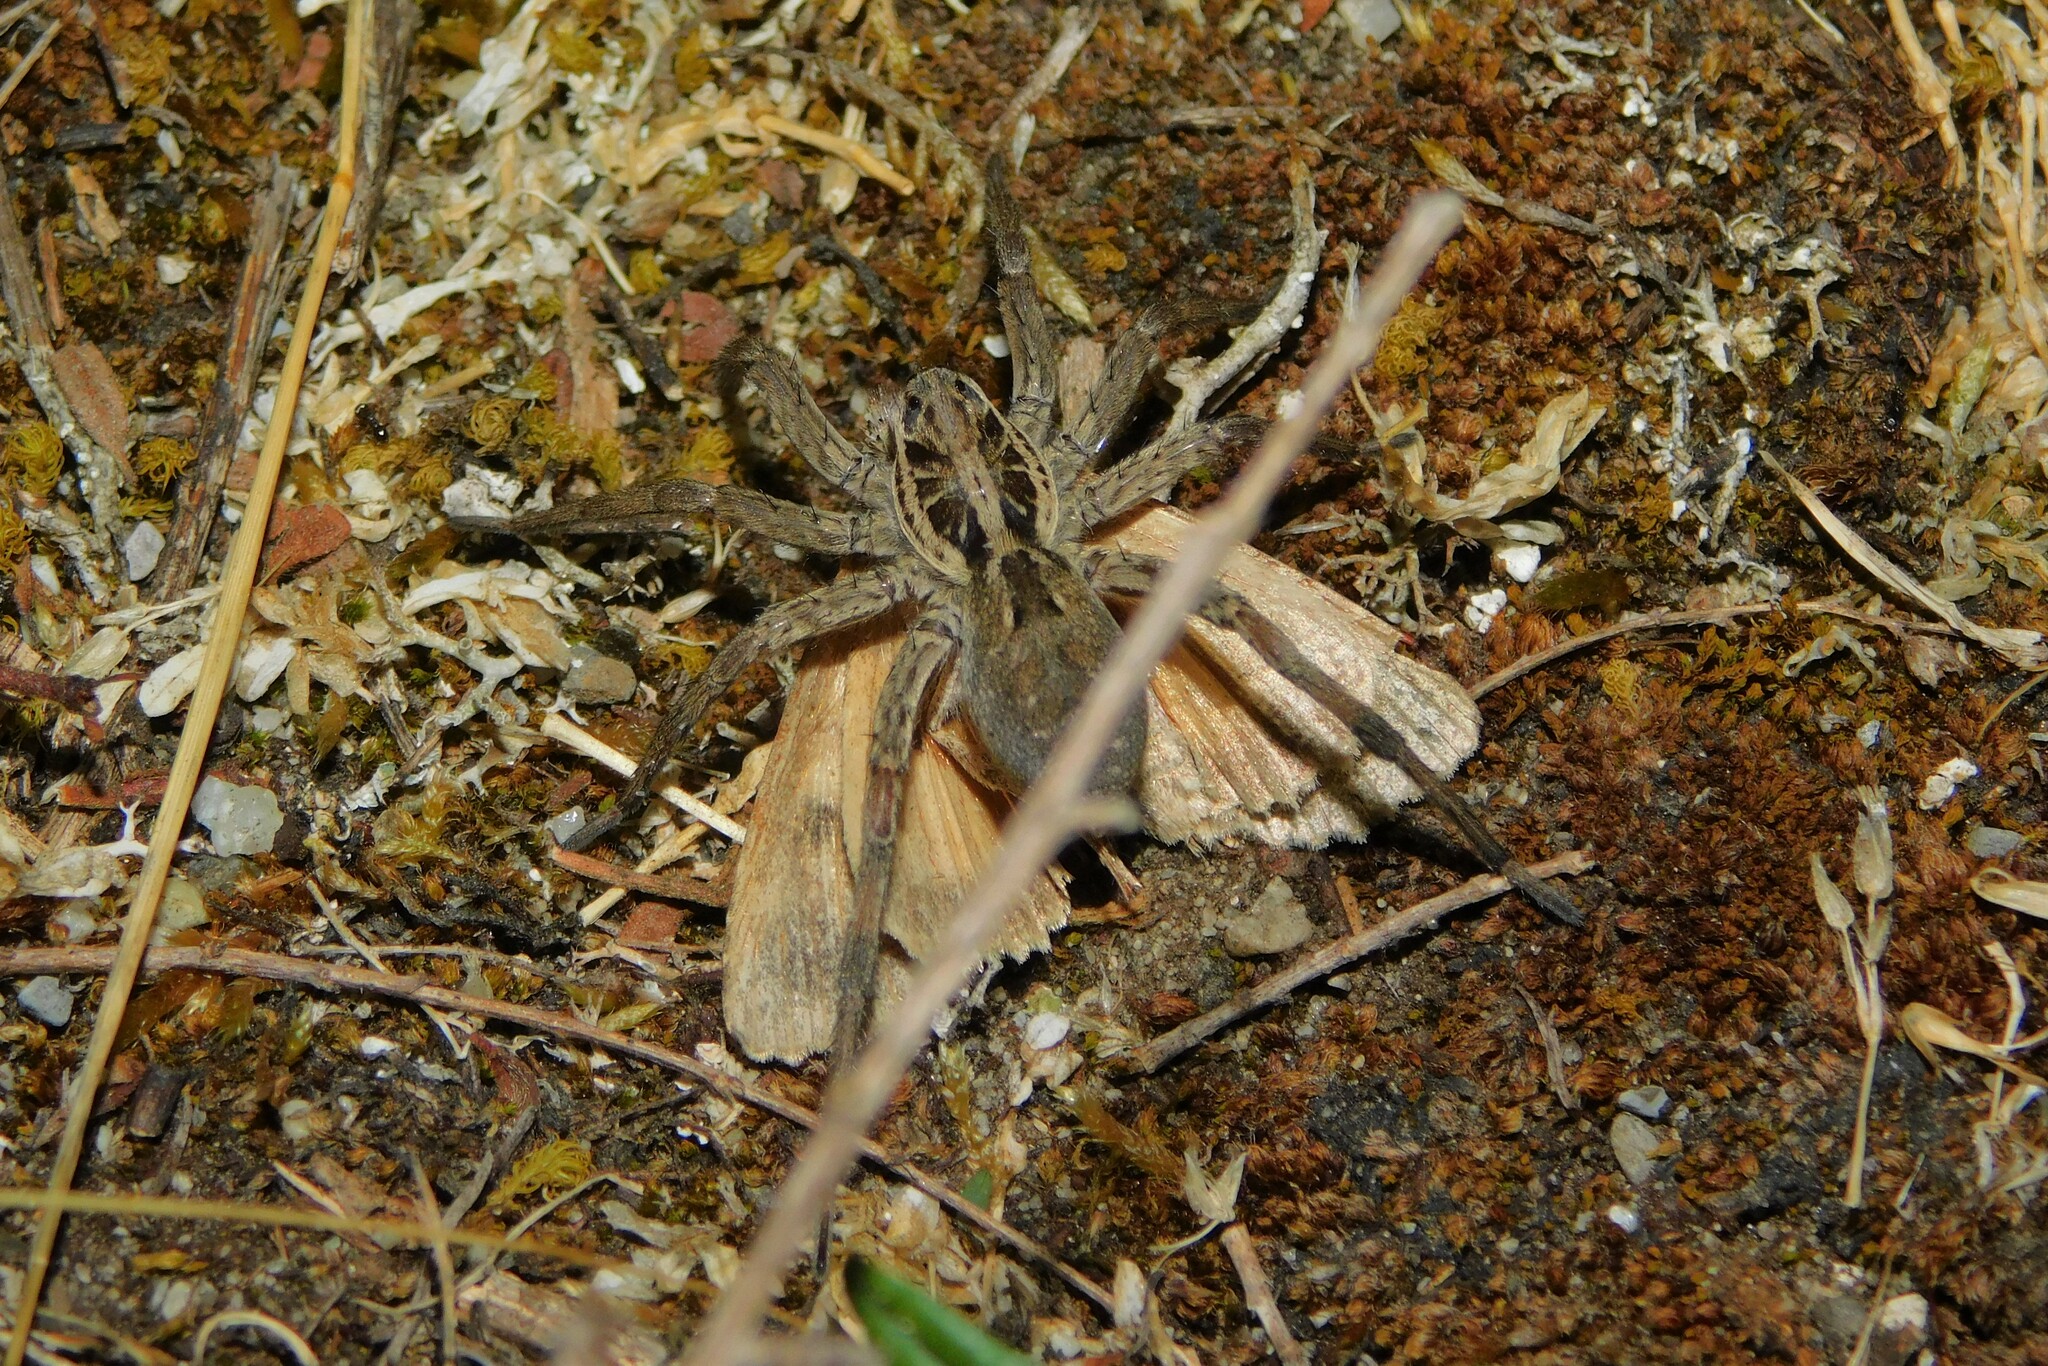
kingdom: Animalia
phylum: Arthropoda
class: Insecta
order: Lepidoptera
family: Noctuidae
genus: Polyphaenis
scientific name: Polyphaenis sericata
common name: Guernsey underwing
